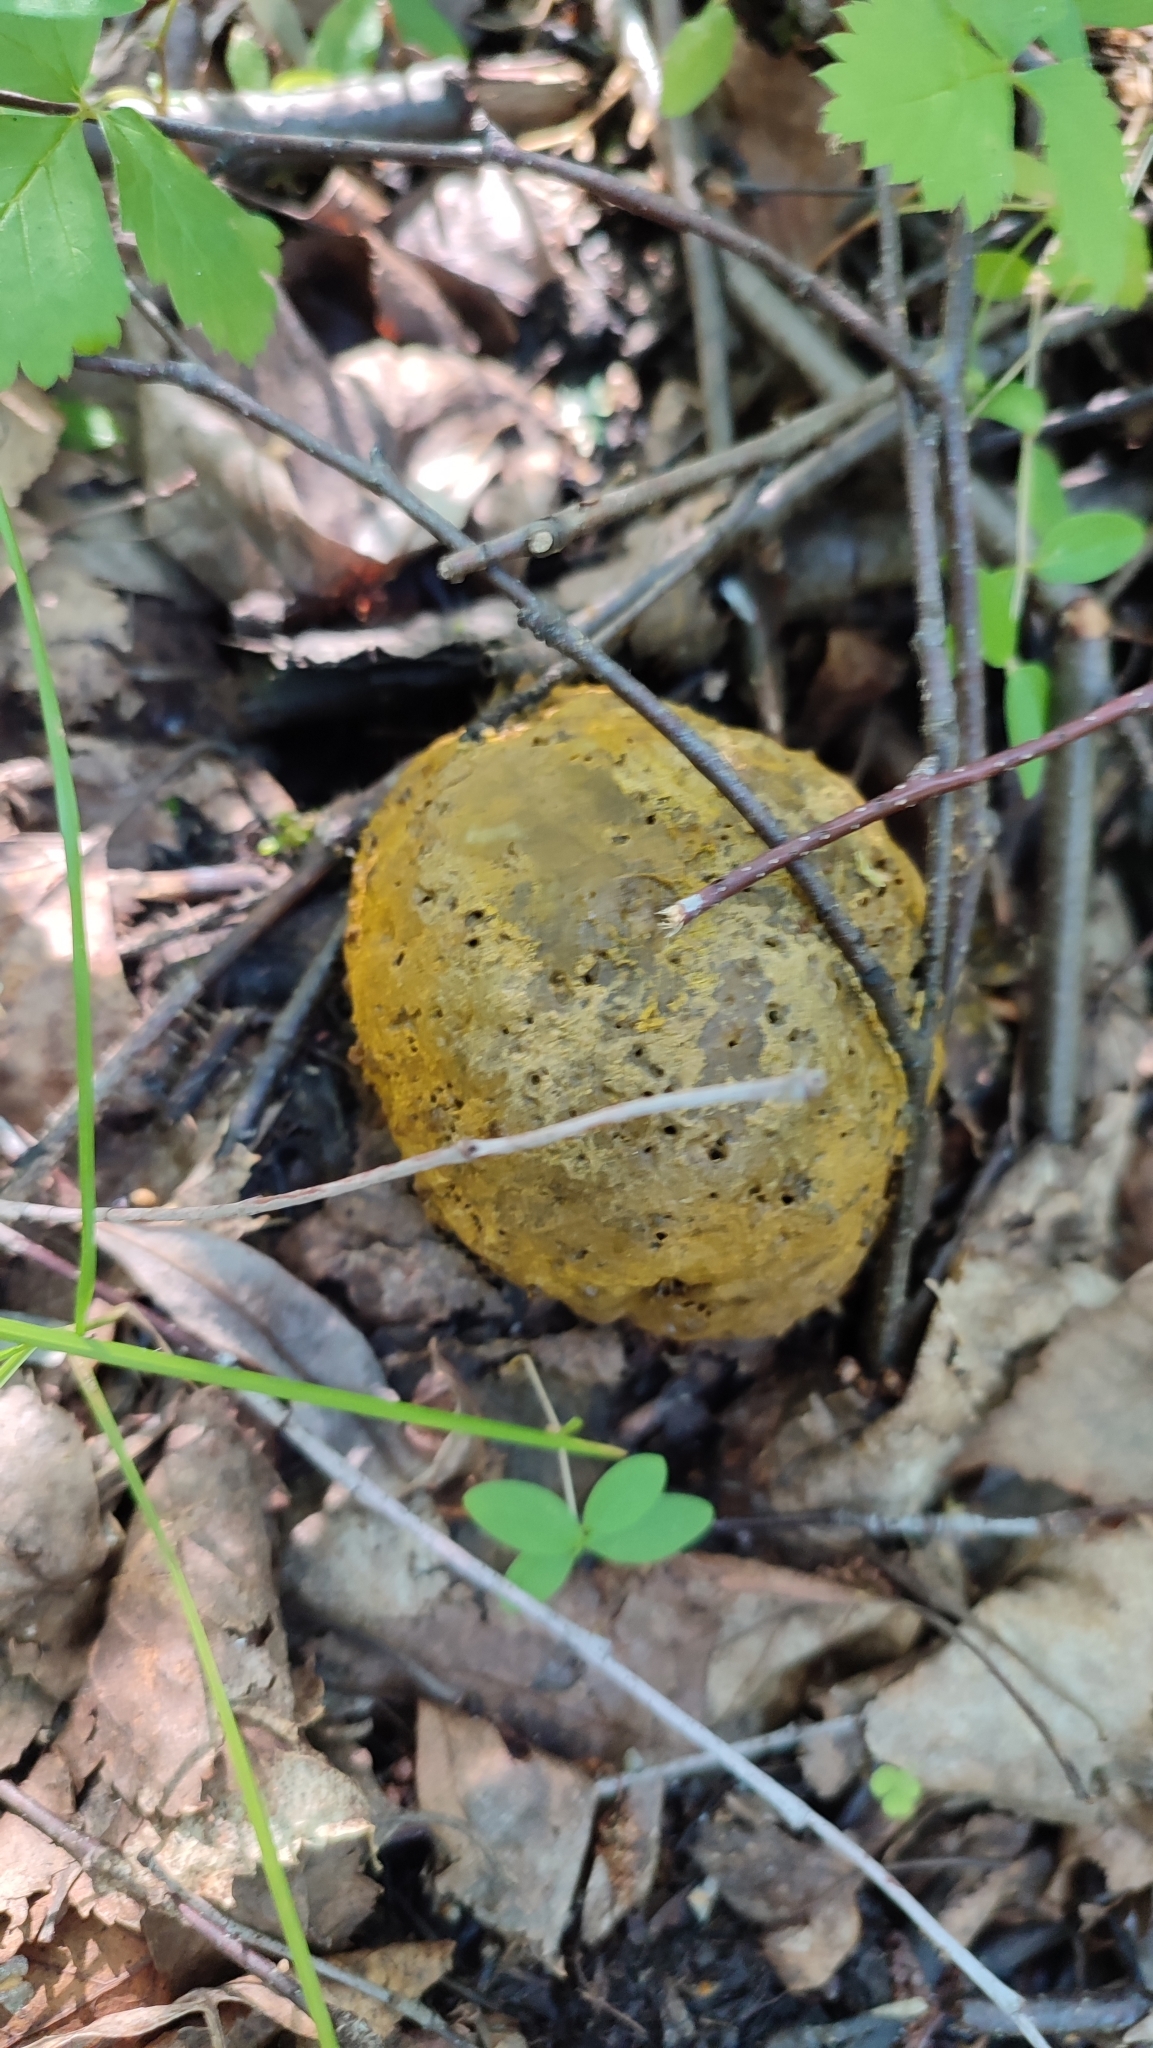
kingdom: Fungi
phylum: Ascomycota
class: Sordariomycetes
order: Hypocreales
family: Hypocreaceae
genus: Hypomyces
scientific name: Hypomyces chrysospermus
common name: Bolete mould
